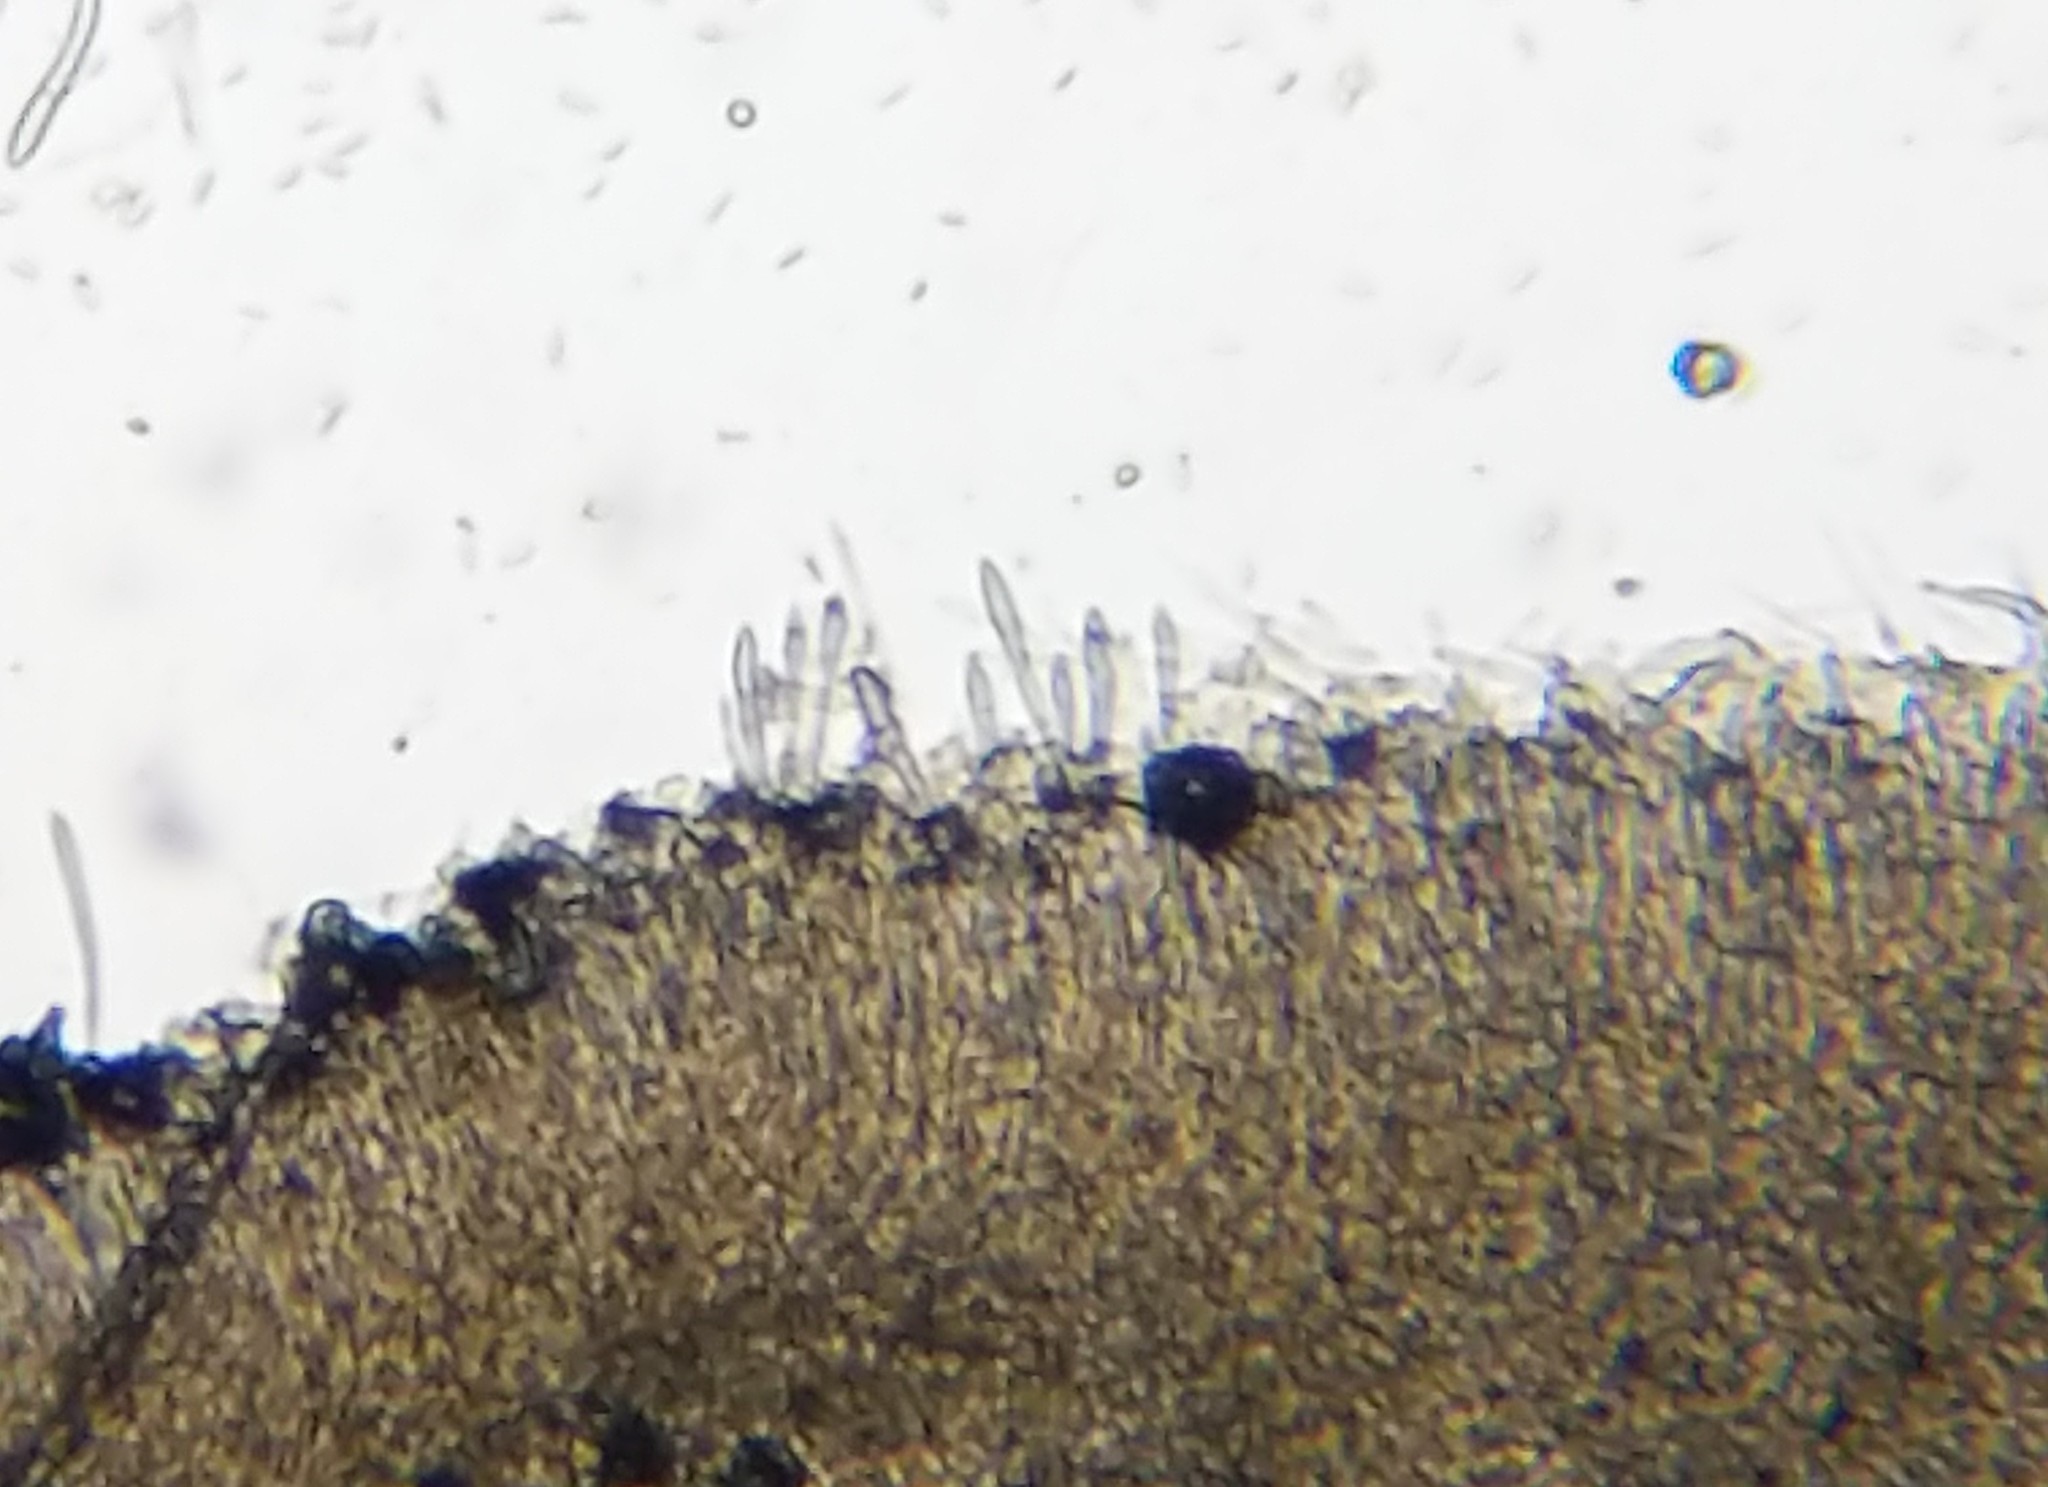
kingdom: Fungi
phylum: Ascomycota
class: Leotiomycetes
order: Helotiales
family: Mollisiaceae
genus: Mollisia
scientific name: Mollisia melaleuca
